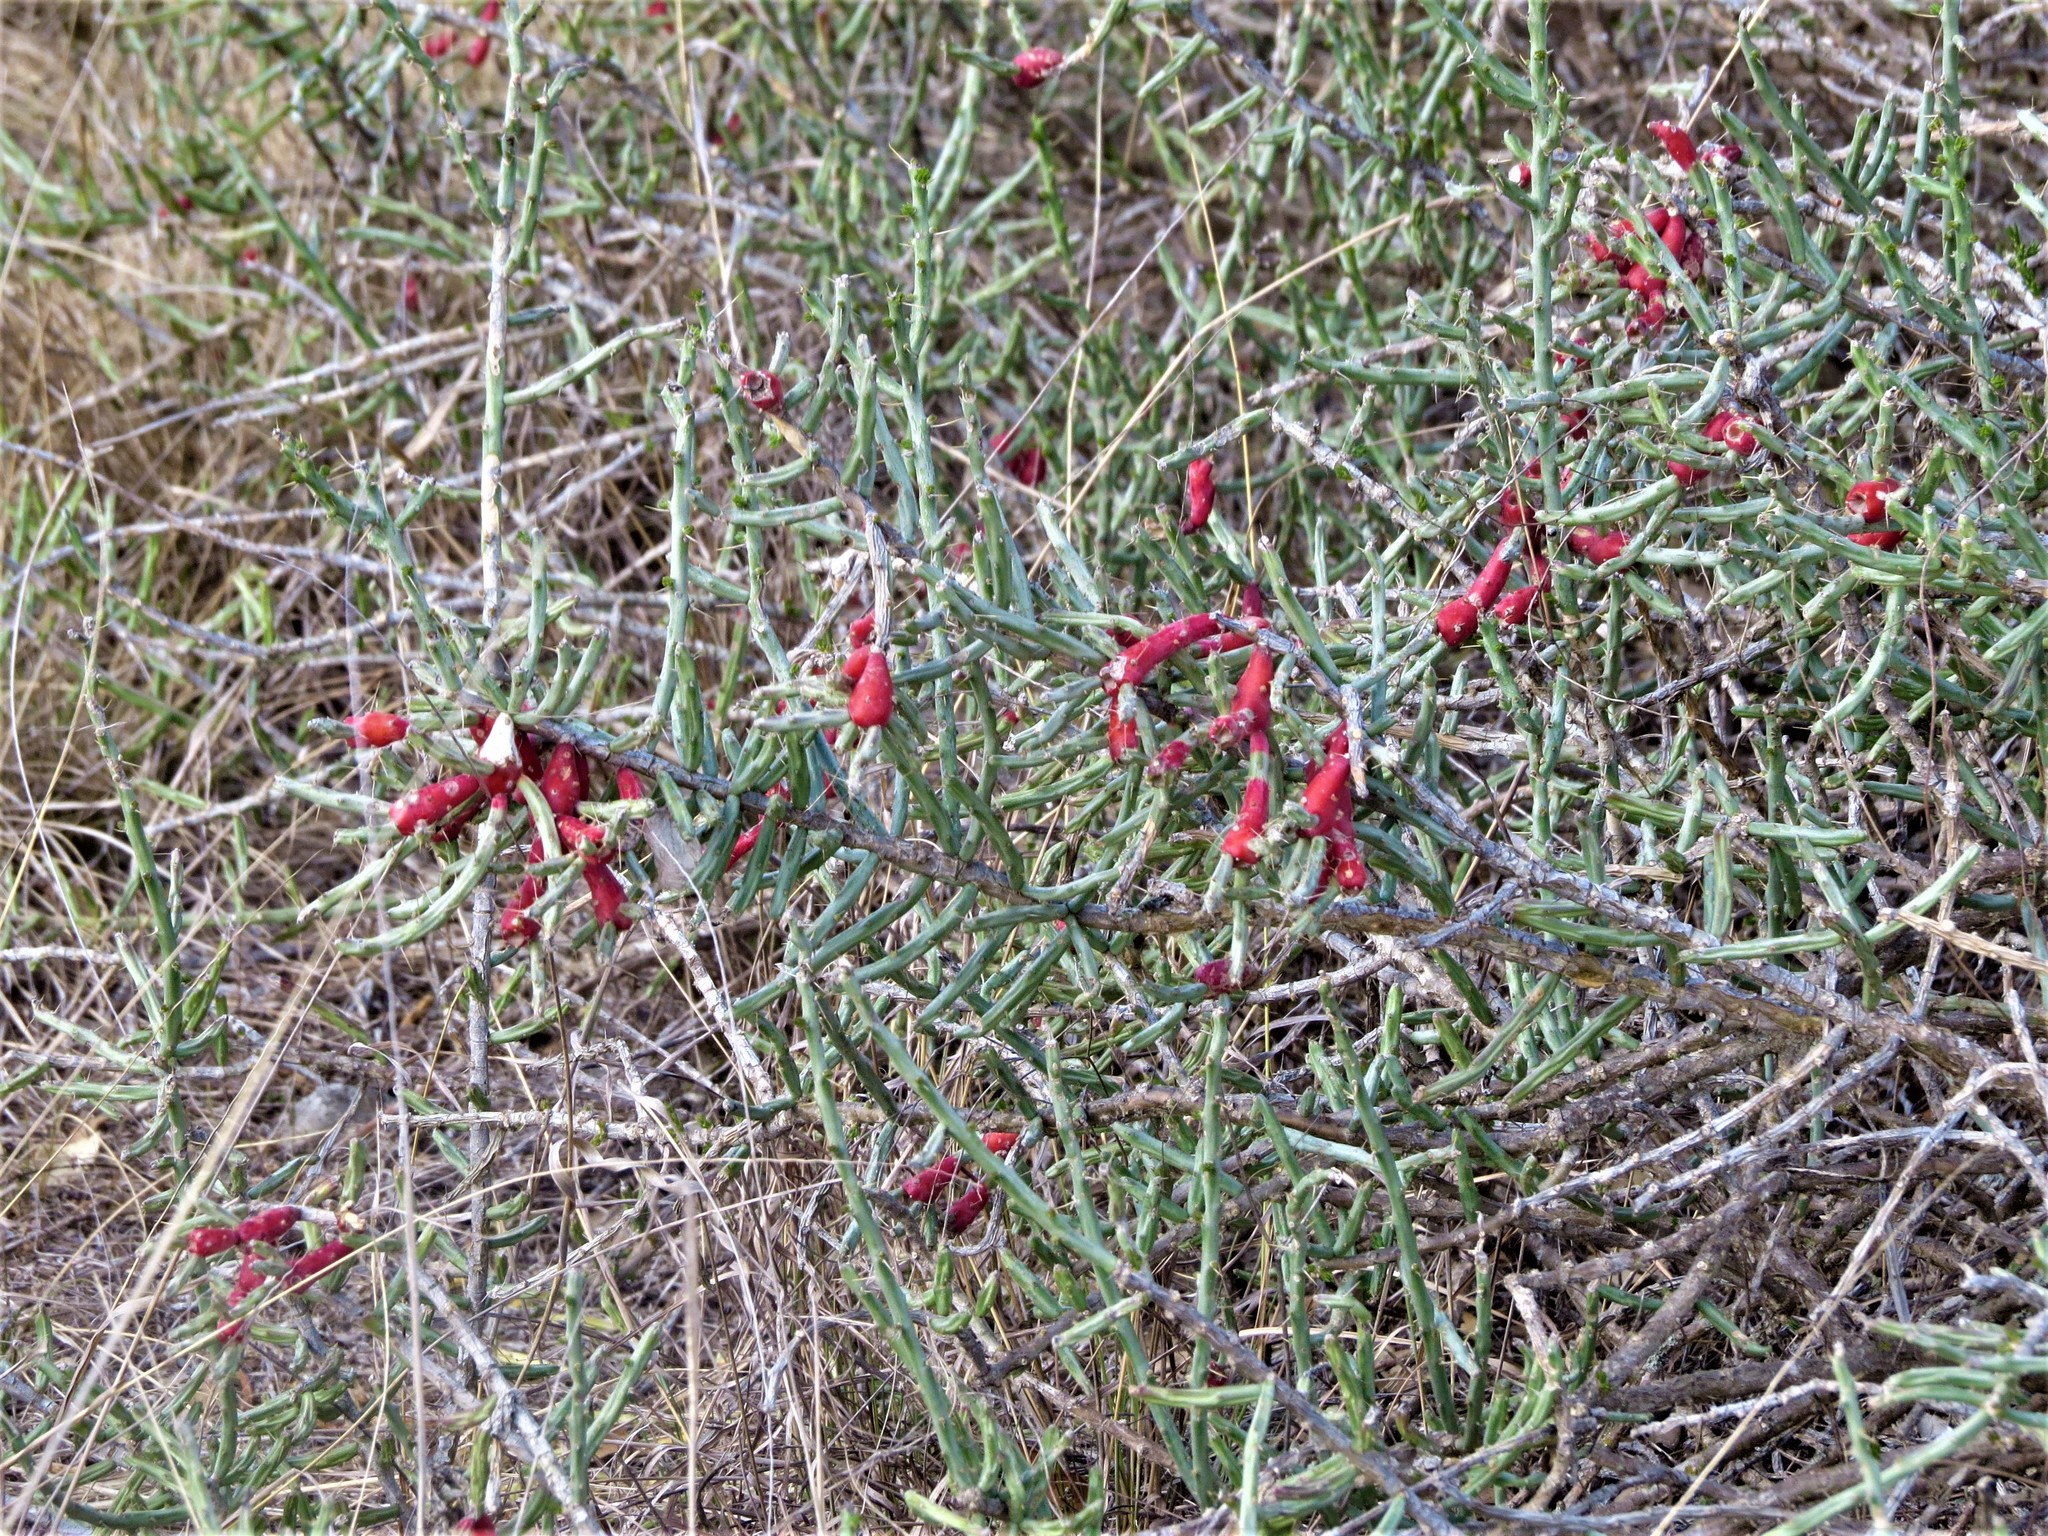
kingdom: Plantae
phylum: Tracheophyta
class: Magnoliopsida
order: Caryophyllales
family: Cactaceae
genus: Cylindropuntia
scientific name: Cylindropuntia leptocaulis
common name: Christmas cactus
